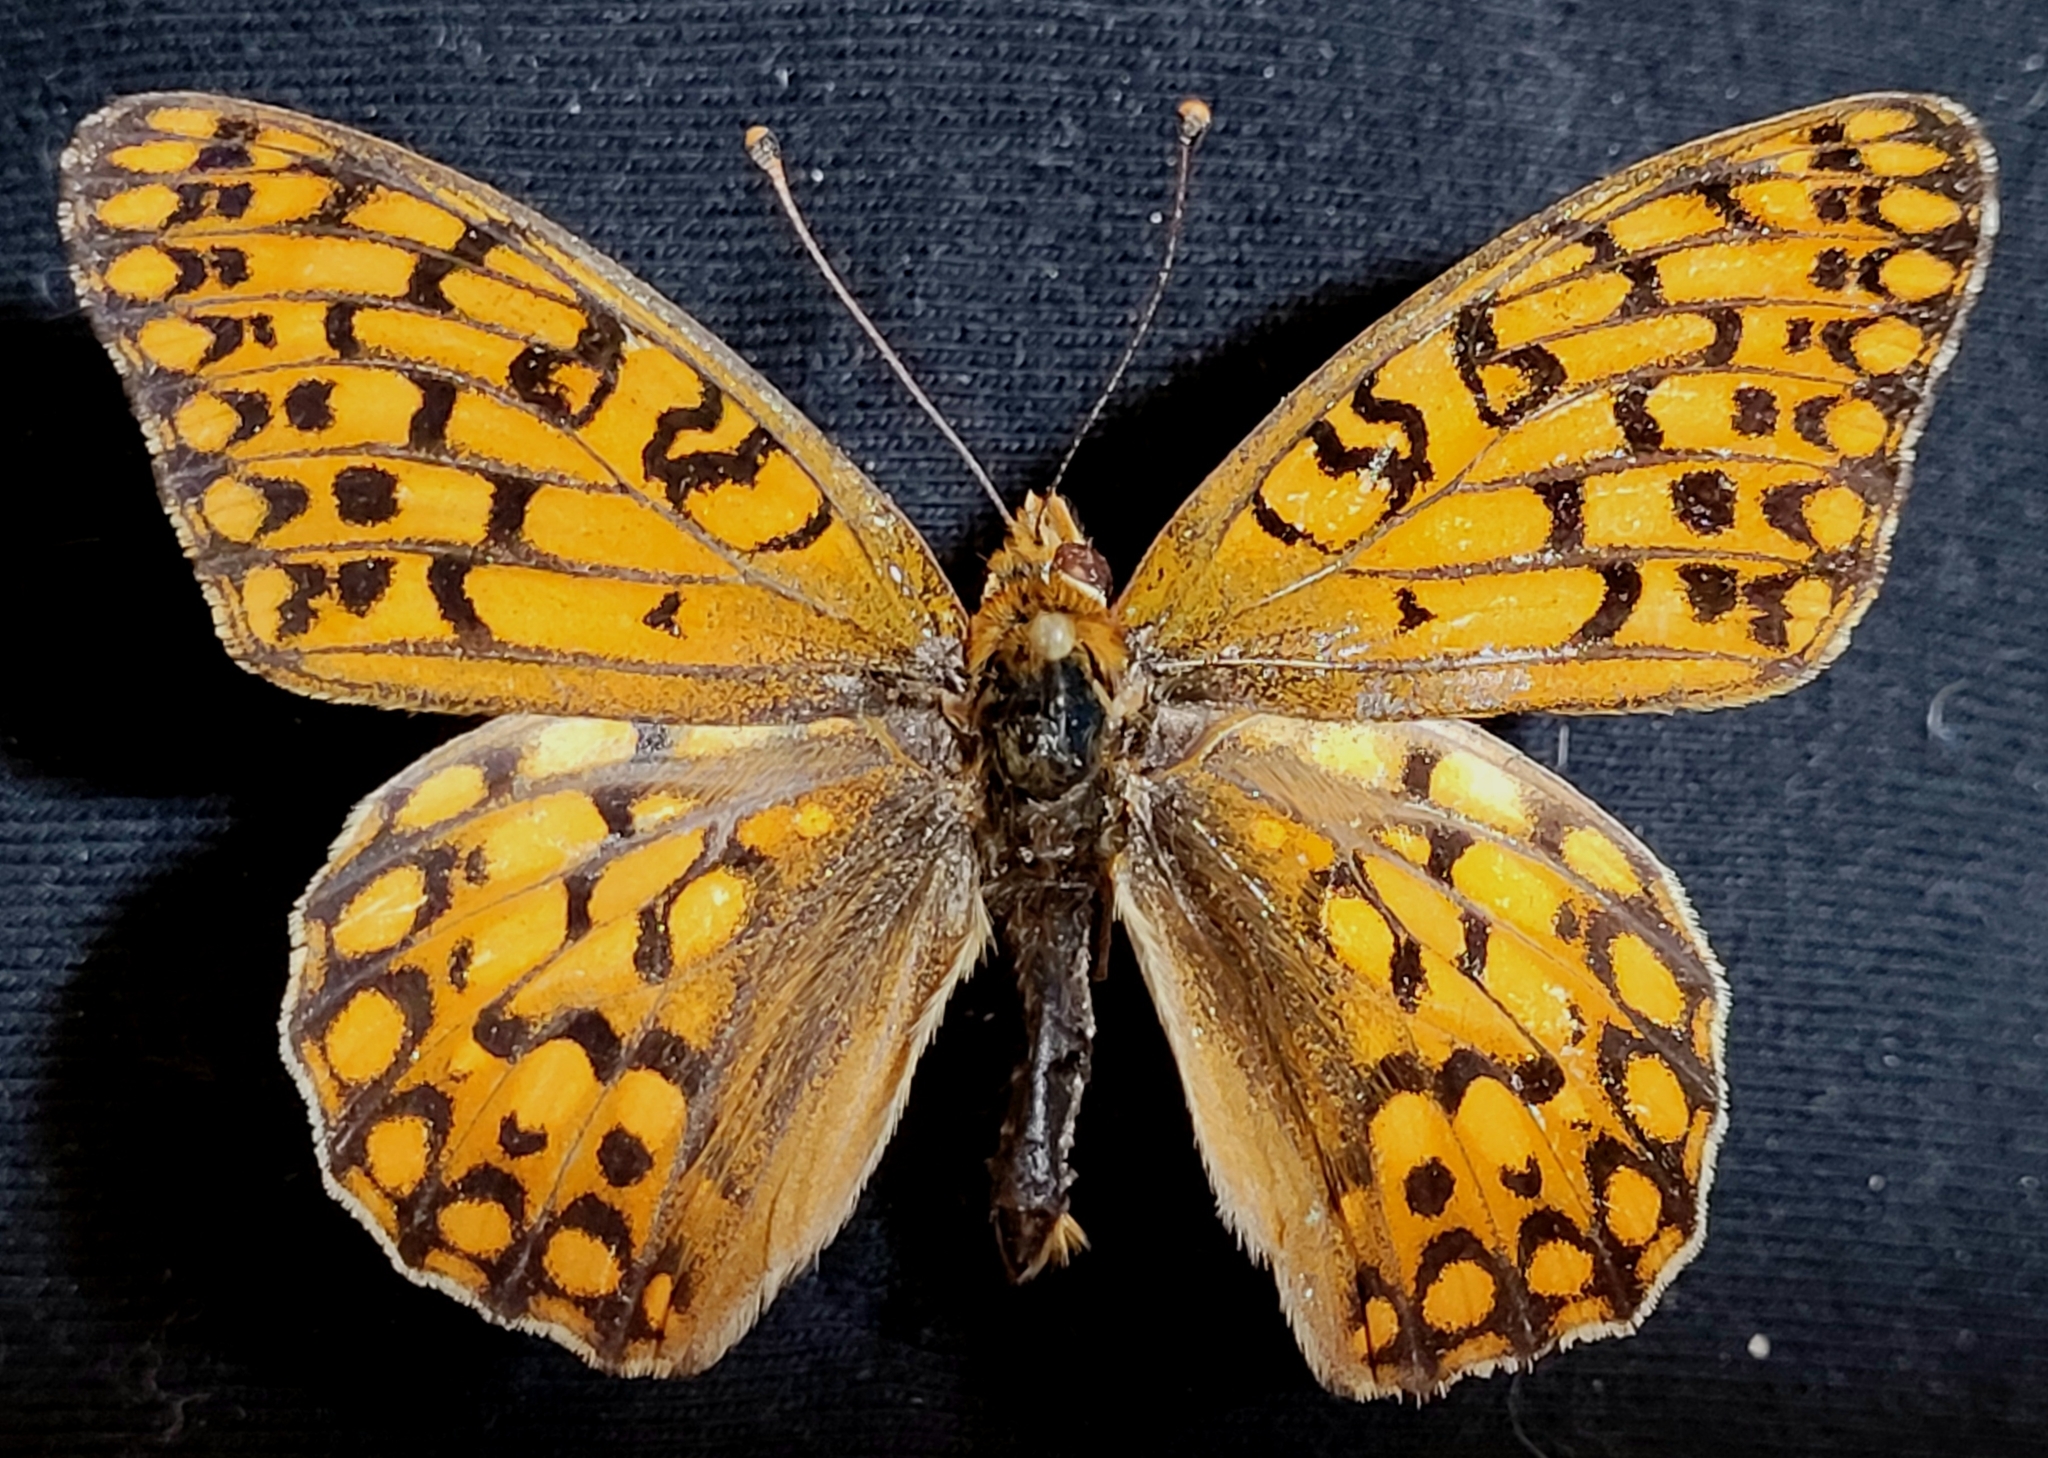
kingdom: Animalia
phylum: Arthropoda
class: Insecta
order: Lepidoptera
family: Nymphalidae
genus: Speyeria
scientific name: Speyeria edwardsii
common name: Edwards' fritillary
